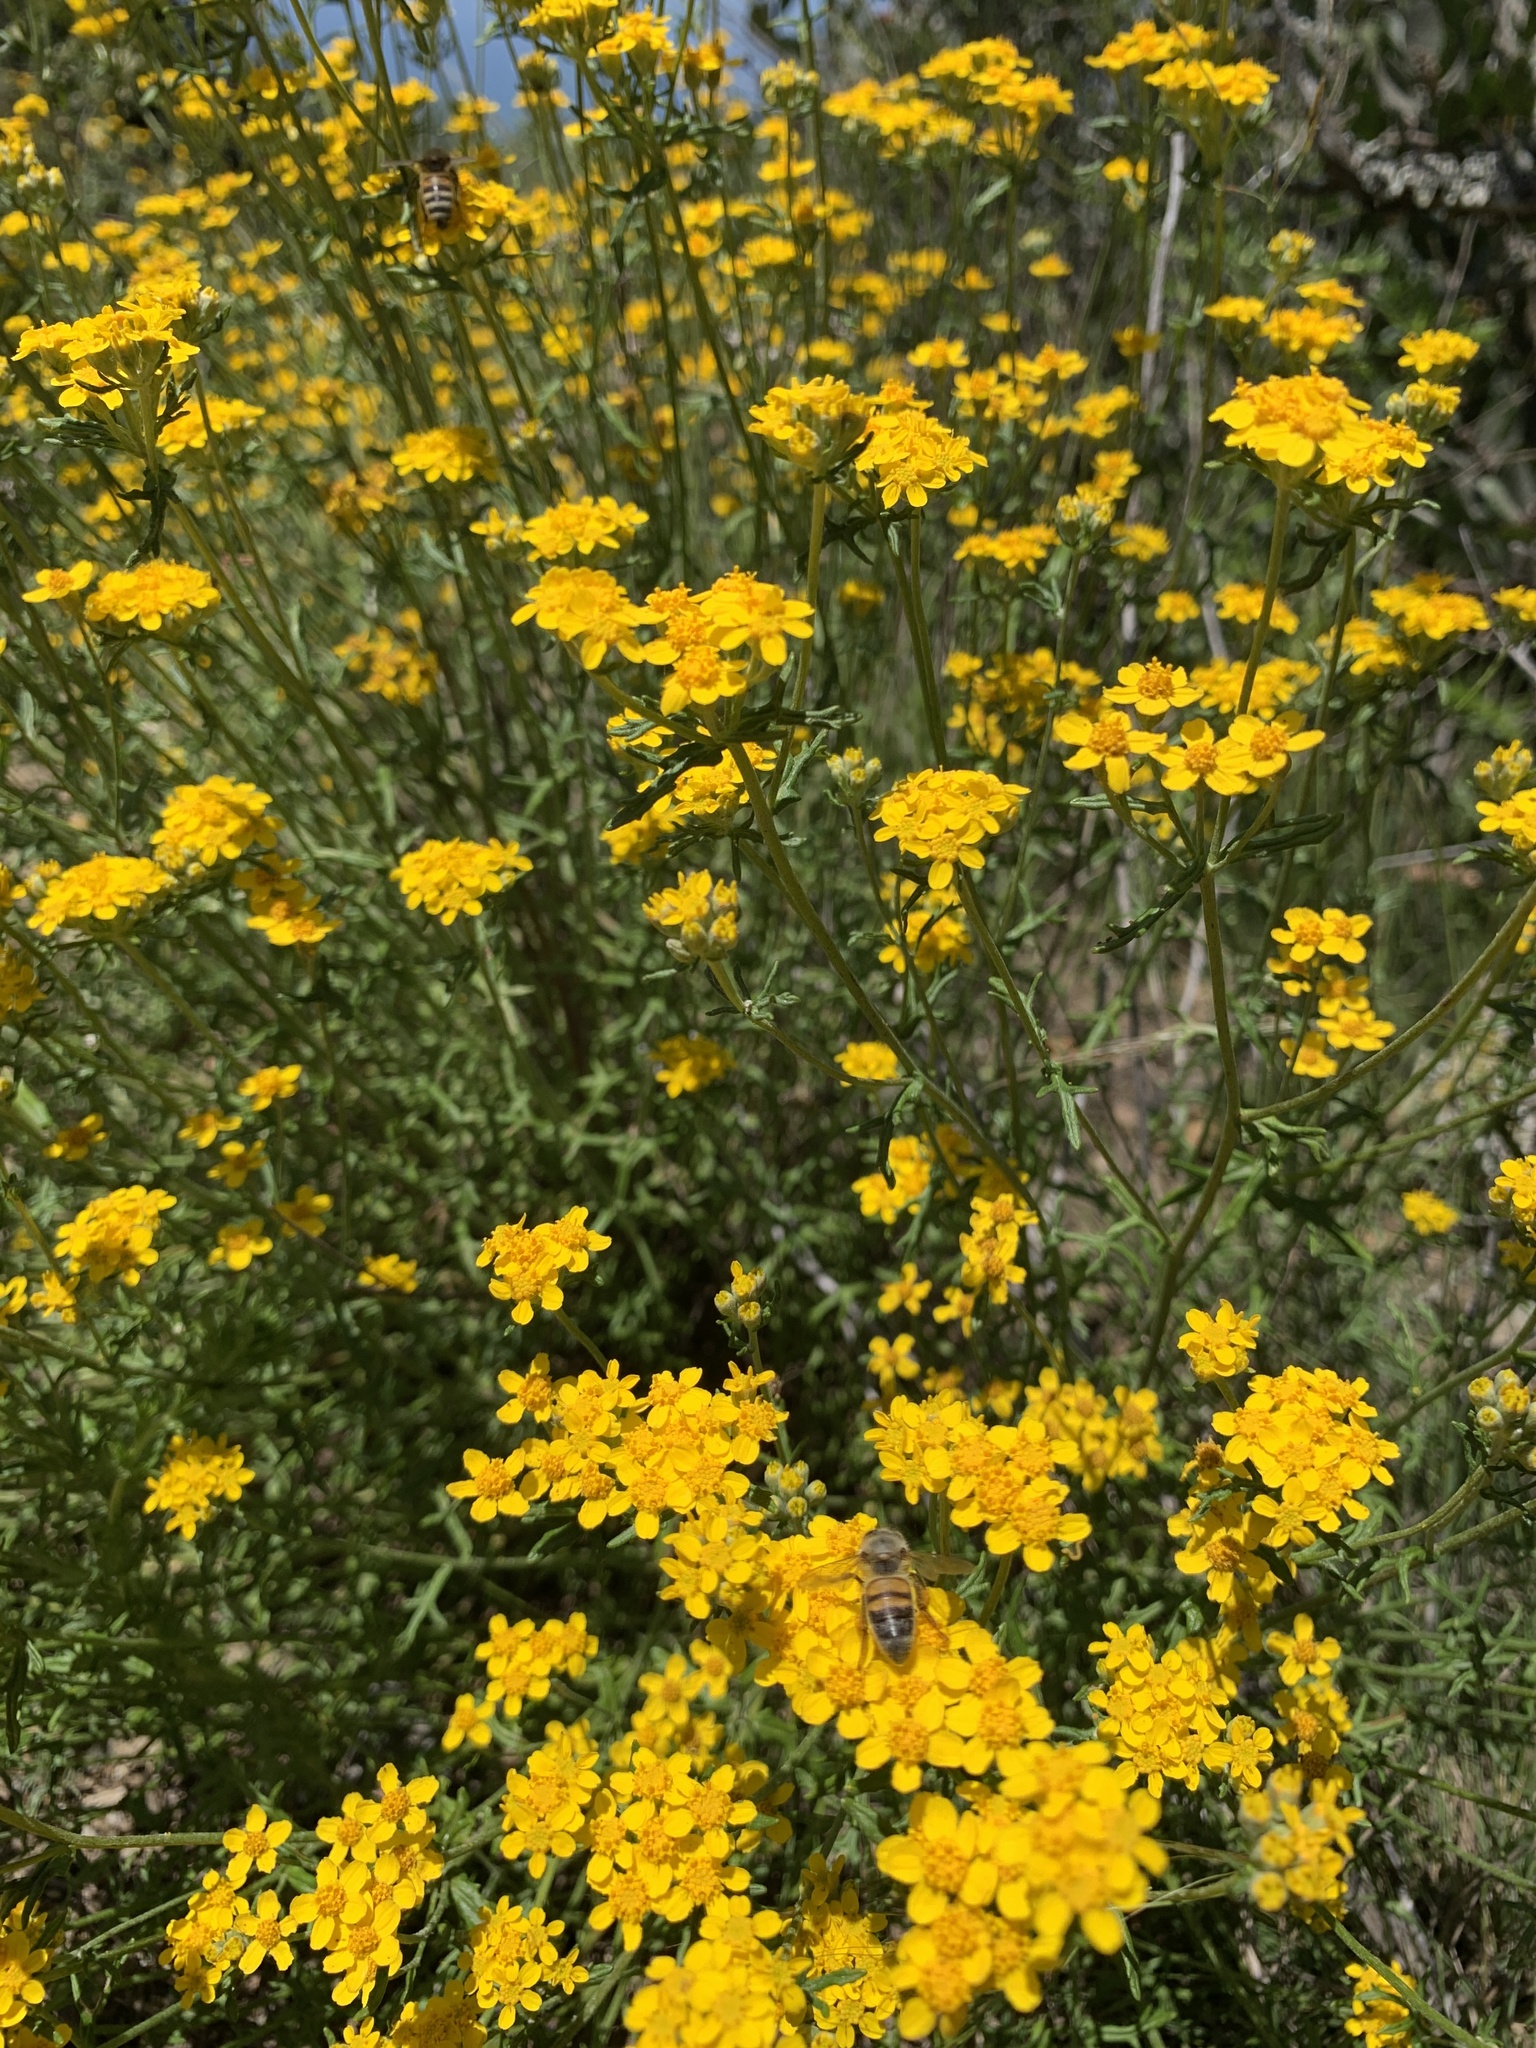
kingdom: Plantae
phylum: Tracheophyta
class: Magnoliopsida
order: Asterales
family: Asteraceae
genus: Eriophyllum
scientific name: Eriophyllum confertiflorum
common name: Golden-yarrow
